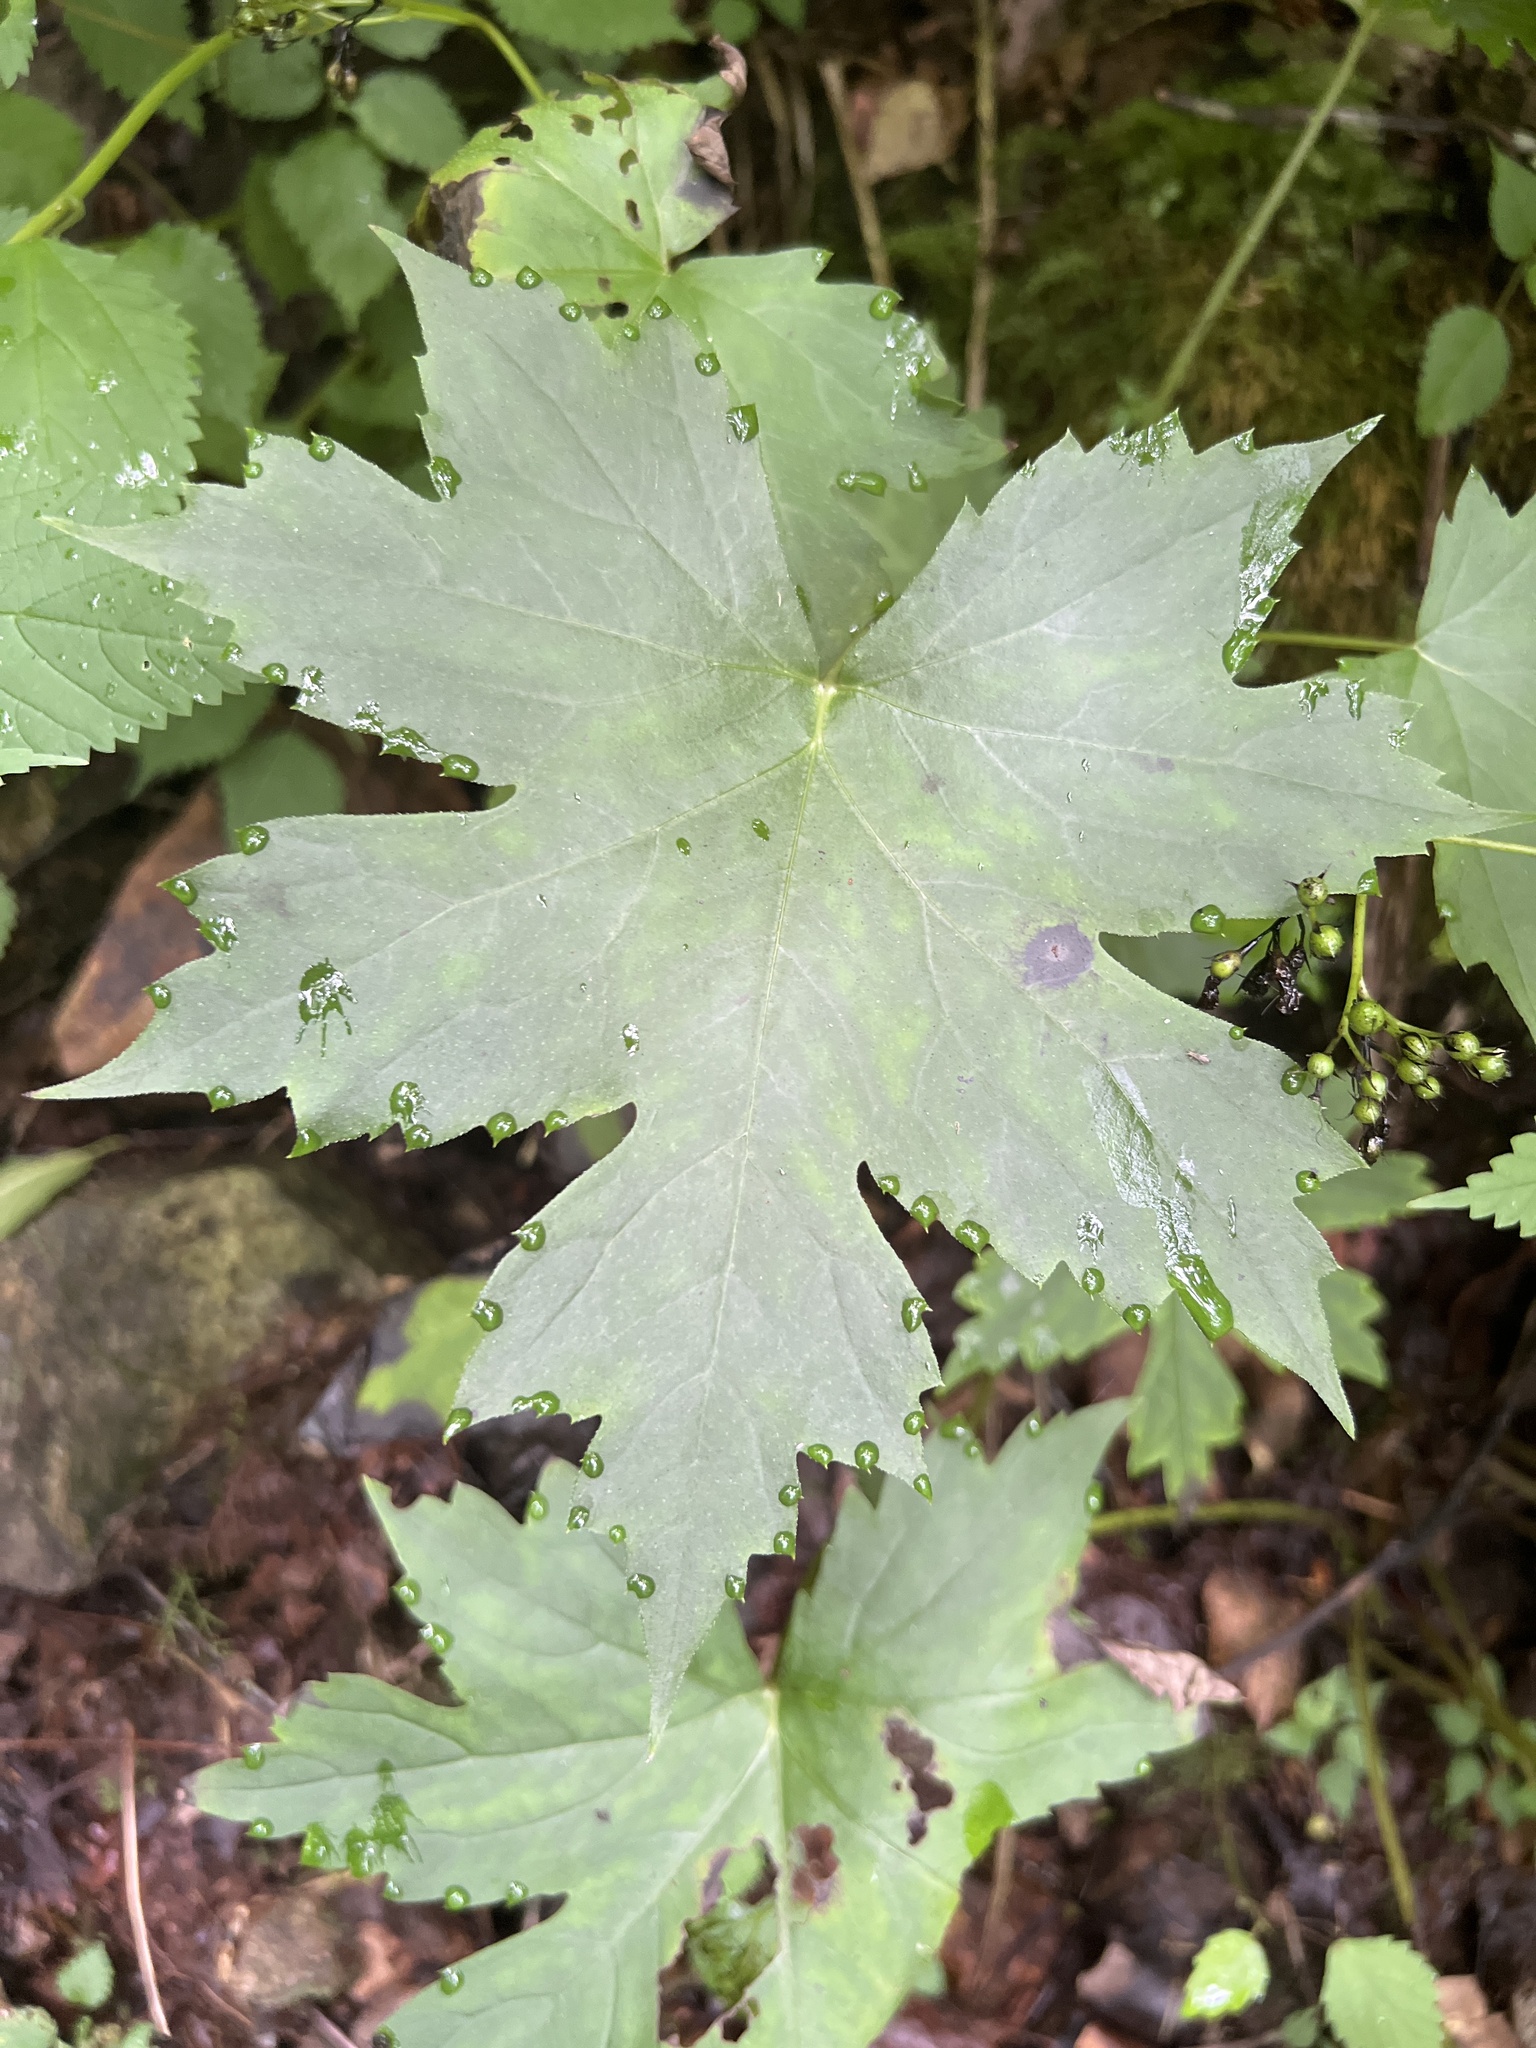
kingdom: Plantae
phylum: Tracheophyta
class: Magnoliopsida
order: Boraginales
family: Hydrophyllaceae
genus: Hydrophyllum
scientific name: Hydrophyllum canadense
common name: Canada waterleaf
